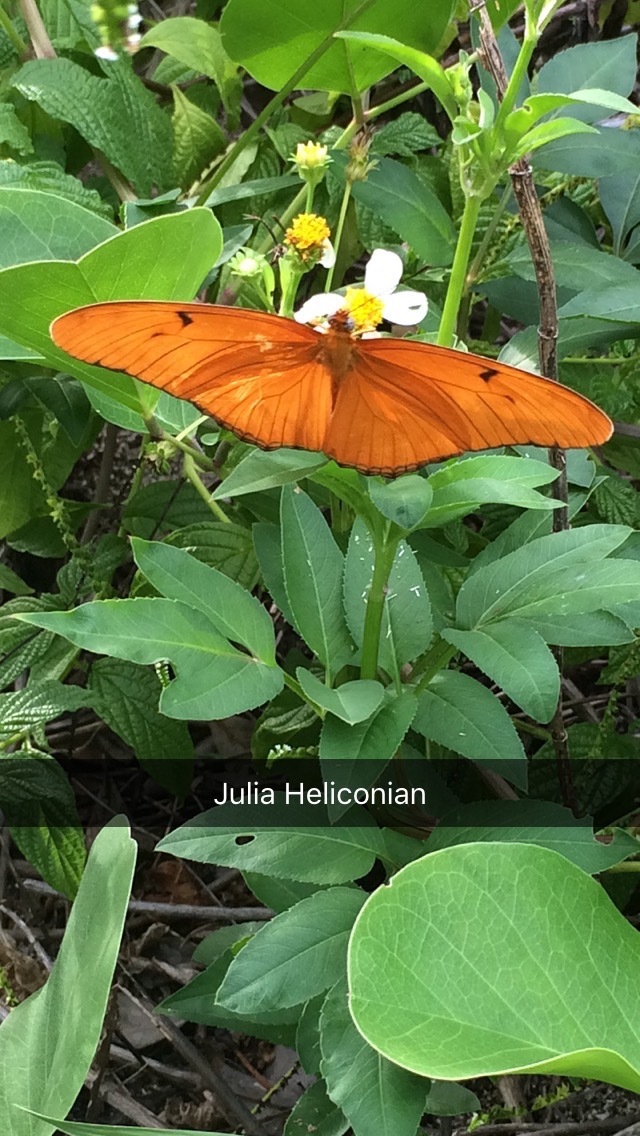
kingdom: Animalia
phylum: Arthropoda
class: Insecta
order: Lepidoptera
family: Nymphalidae
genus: Dryas
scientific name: Dryas iulia
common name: Flambeau
